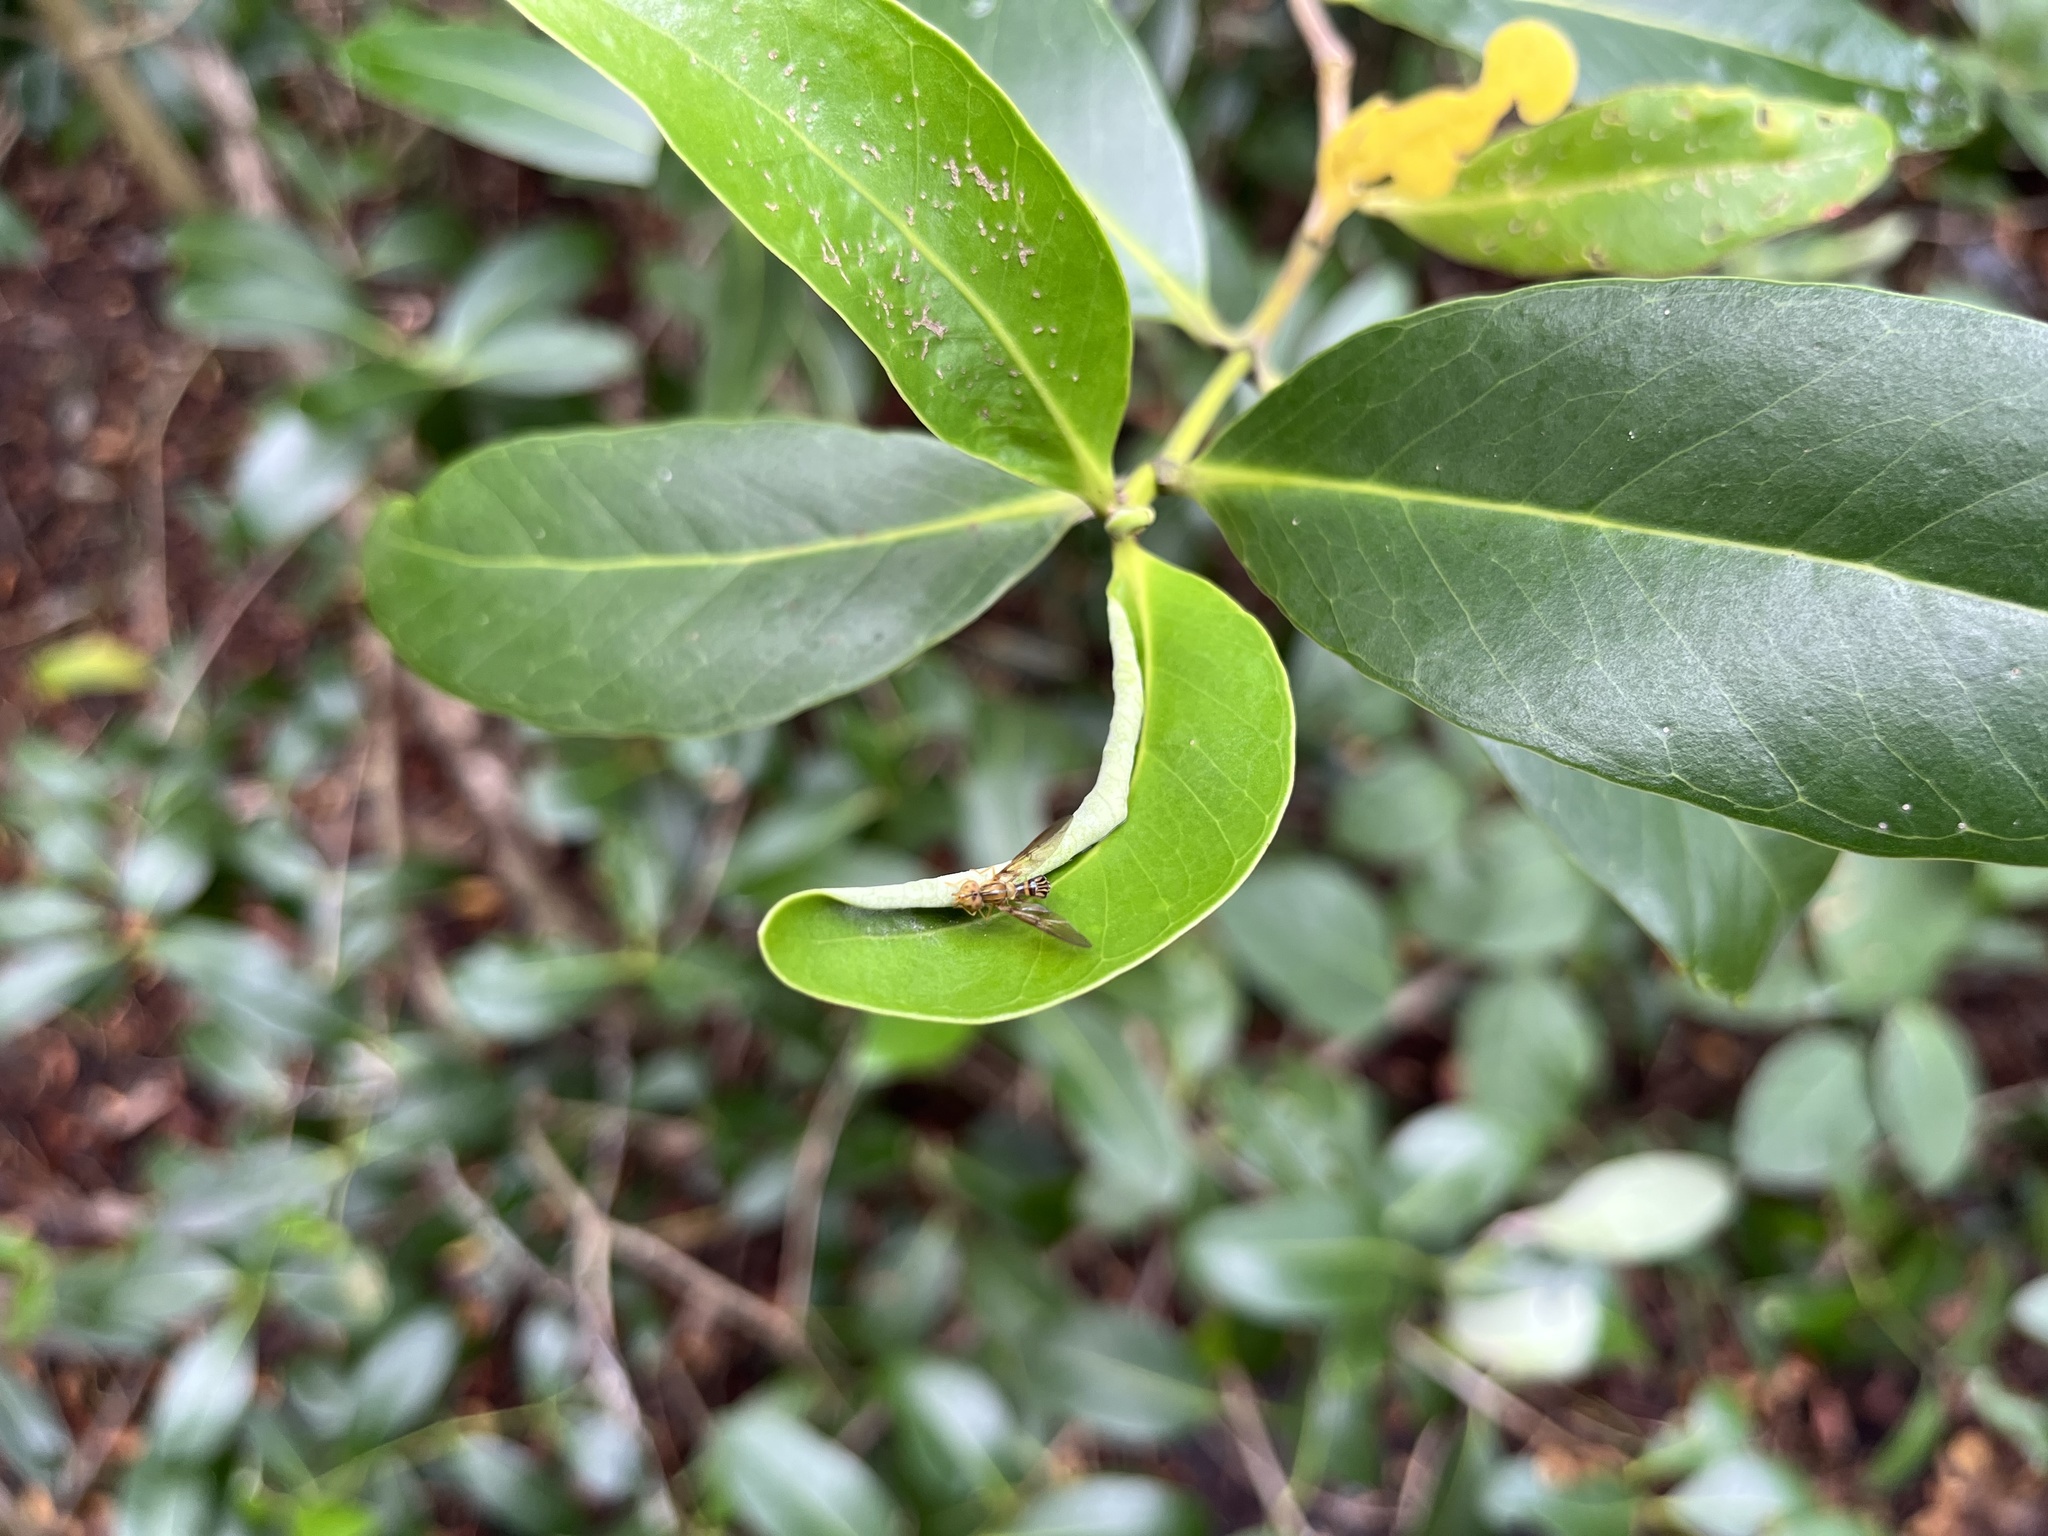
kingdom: Animalia
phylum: Arthropoda
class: Insecta
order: Diptera
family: Syrphidae
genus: Hybobathus
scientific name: Hybobathus lineatus
